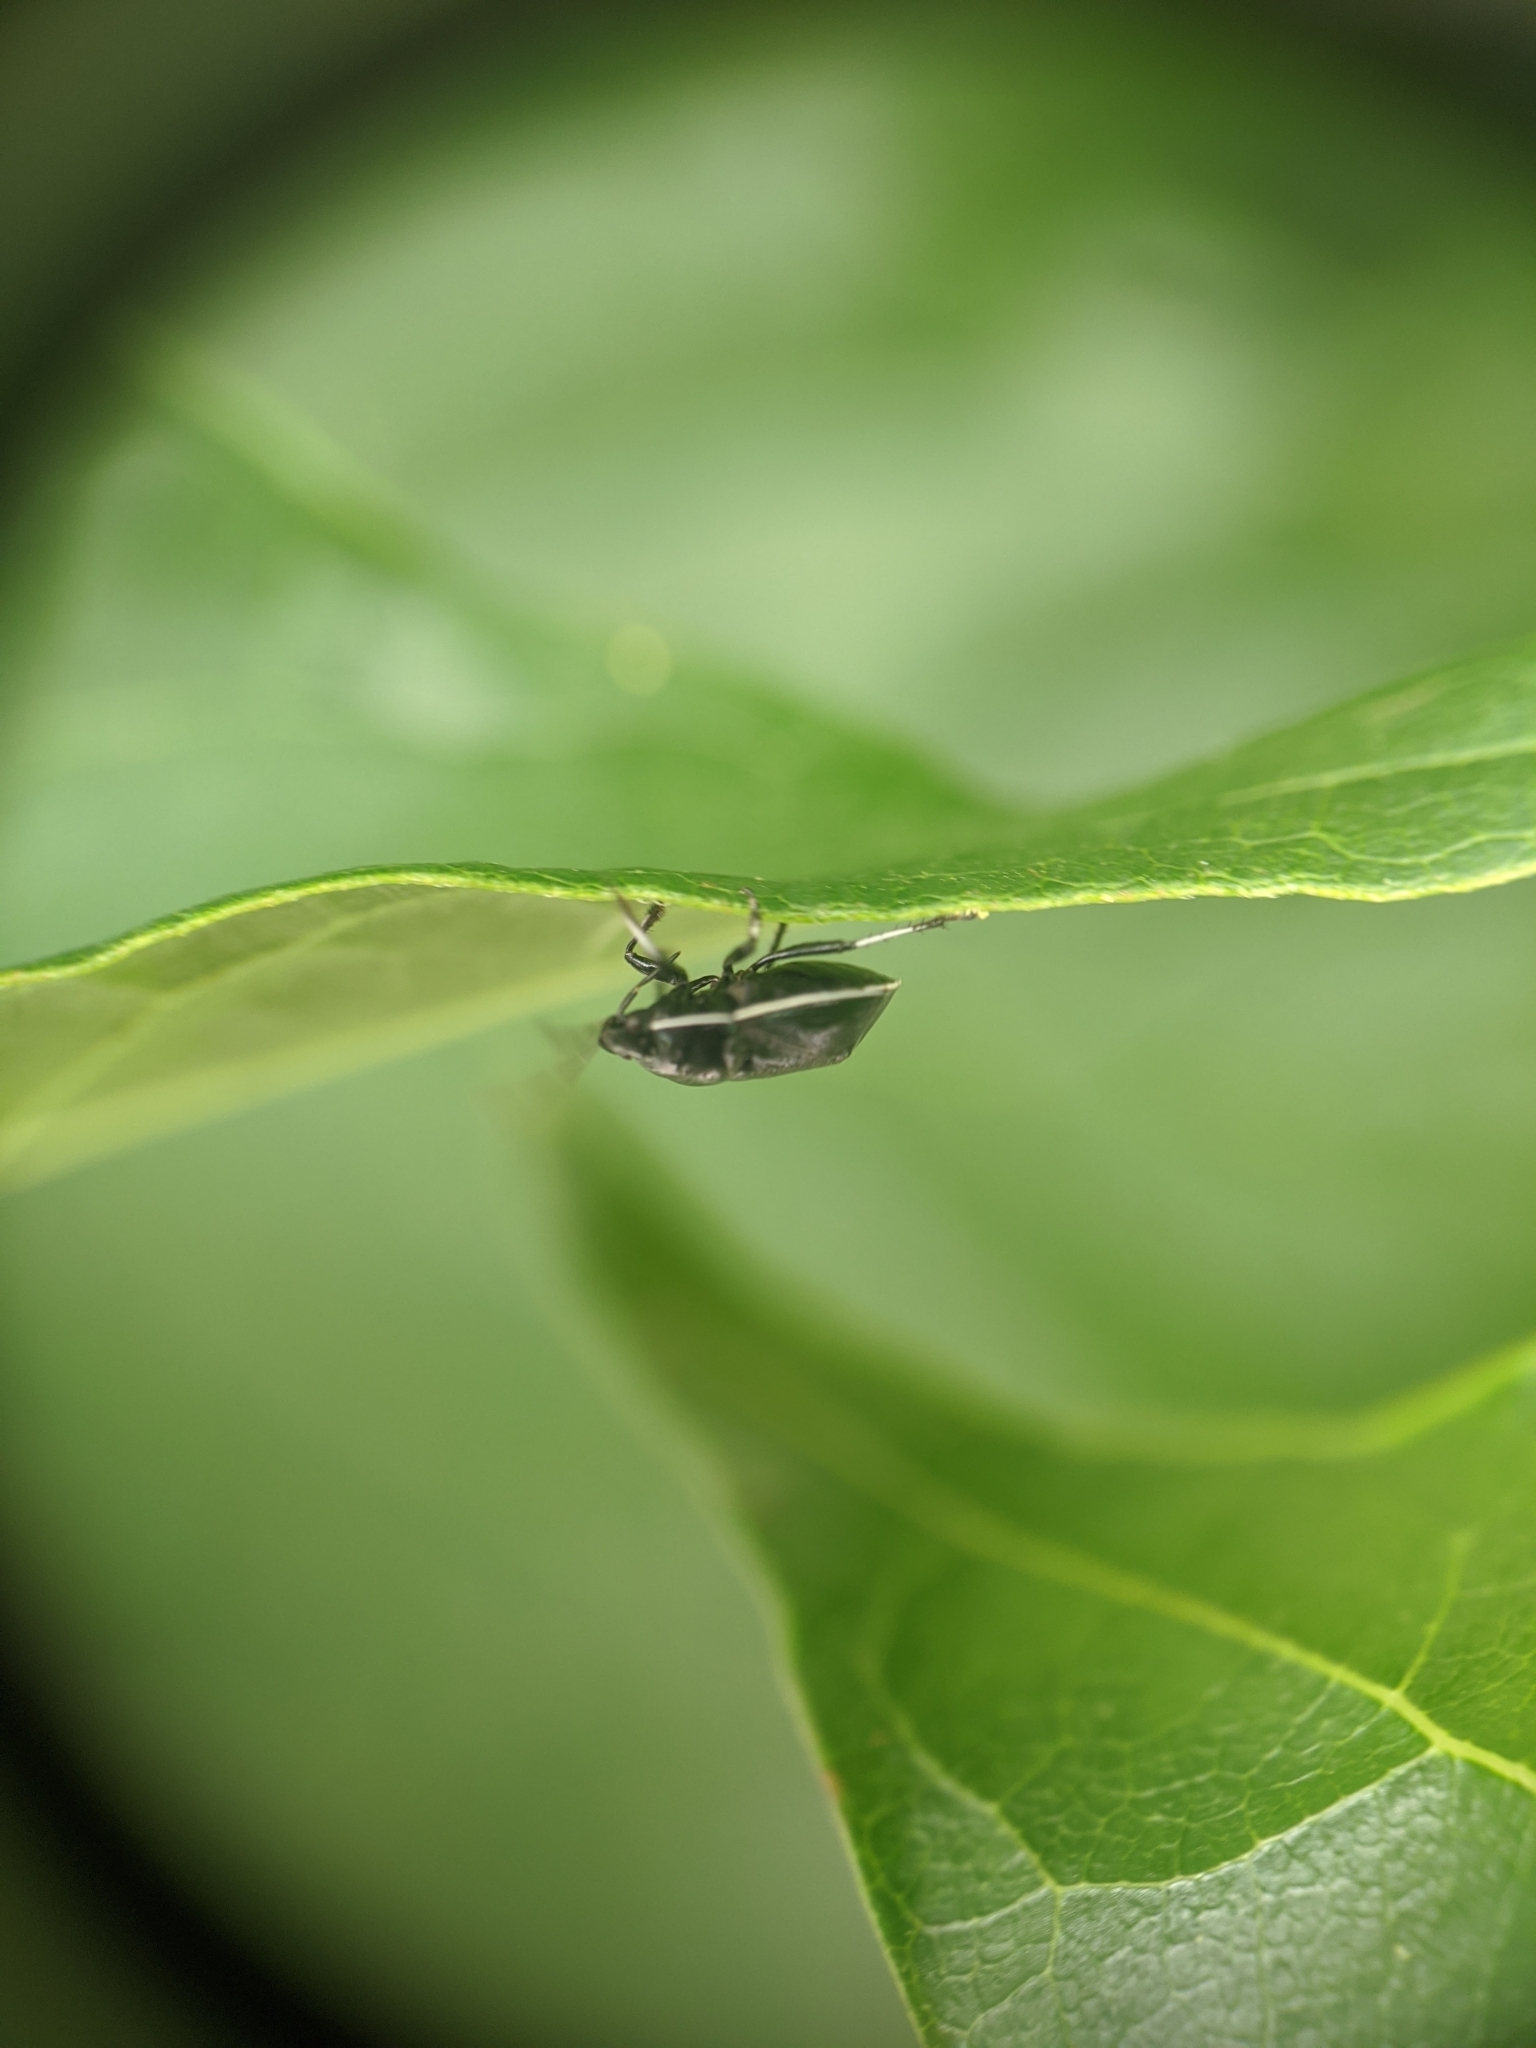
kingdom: Animalia
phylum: Arthropoda
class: Insecta
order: Hemiptera
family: Cydnidae
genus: Sehirus
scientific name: Sehirus cinctus
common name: White-margined burrower bug
